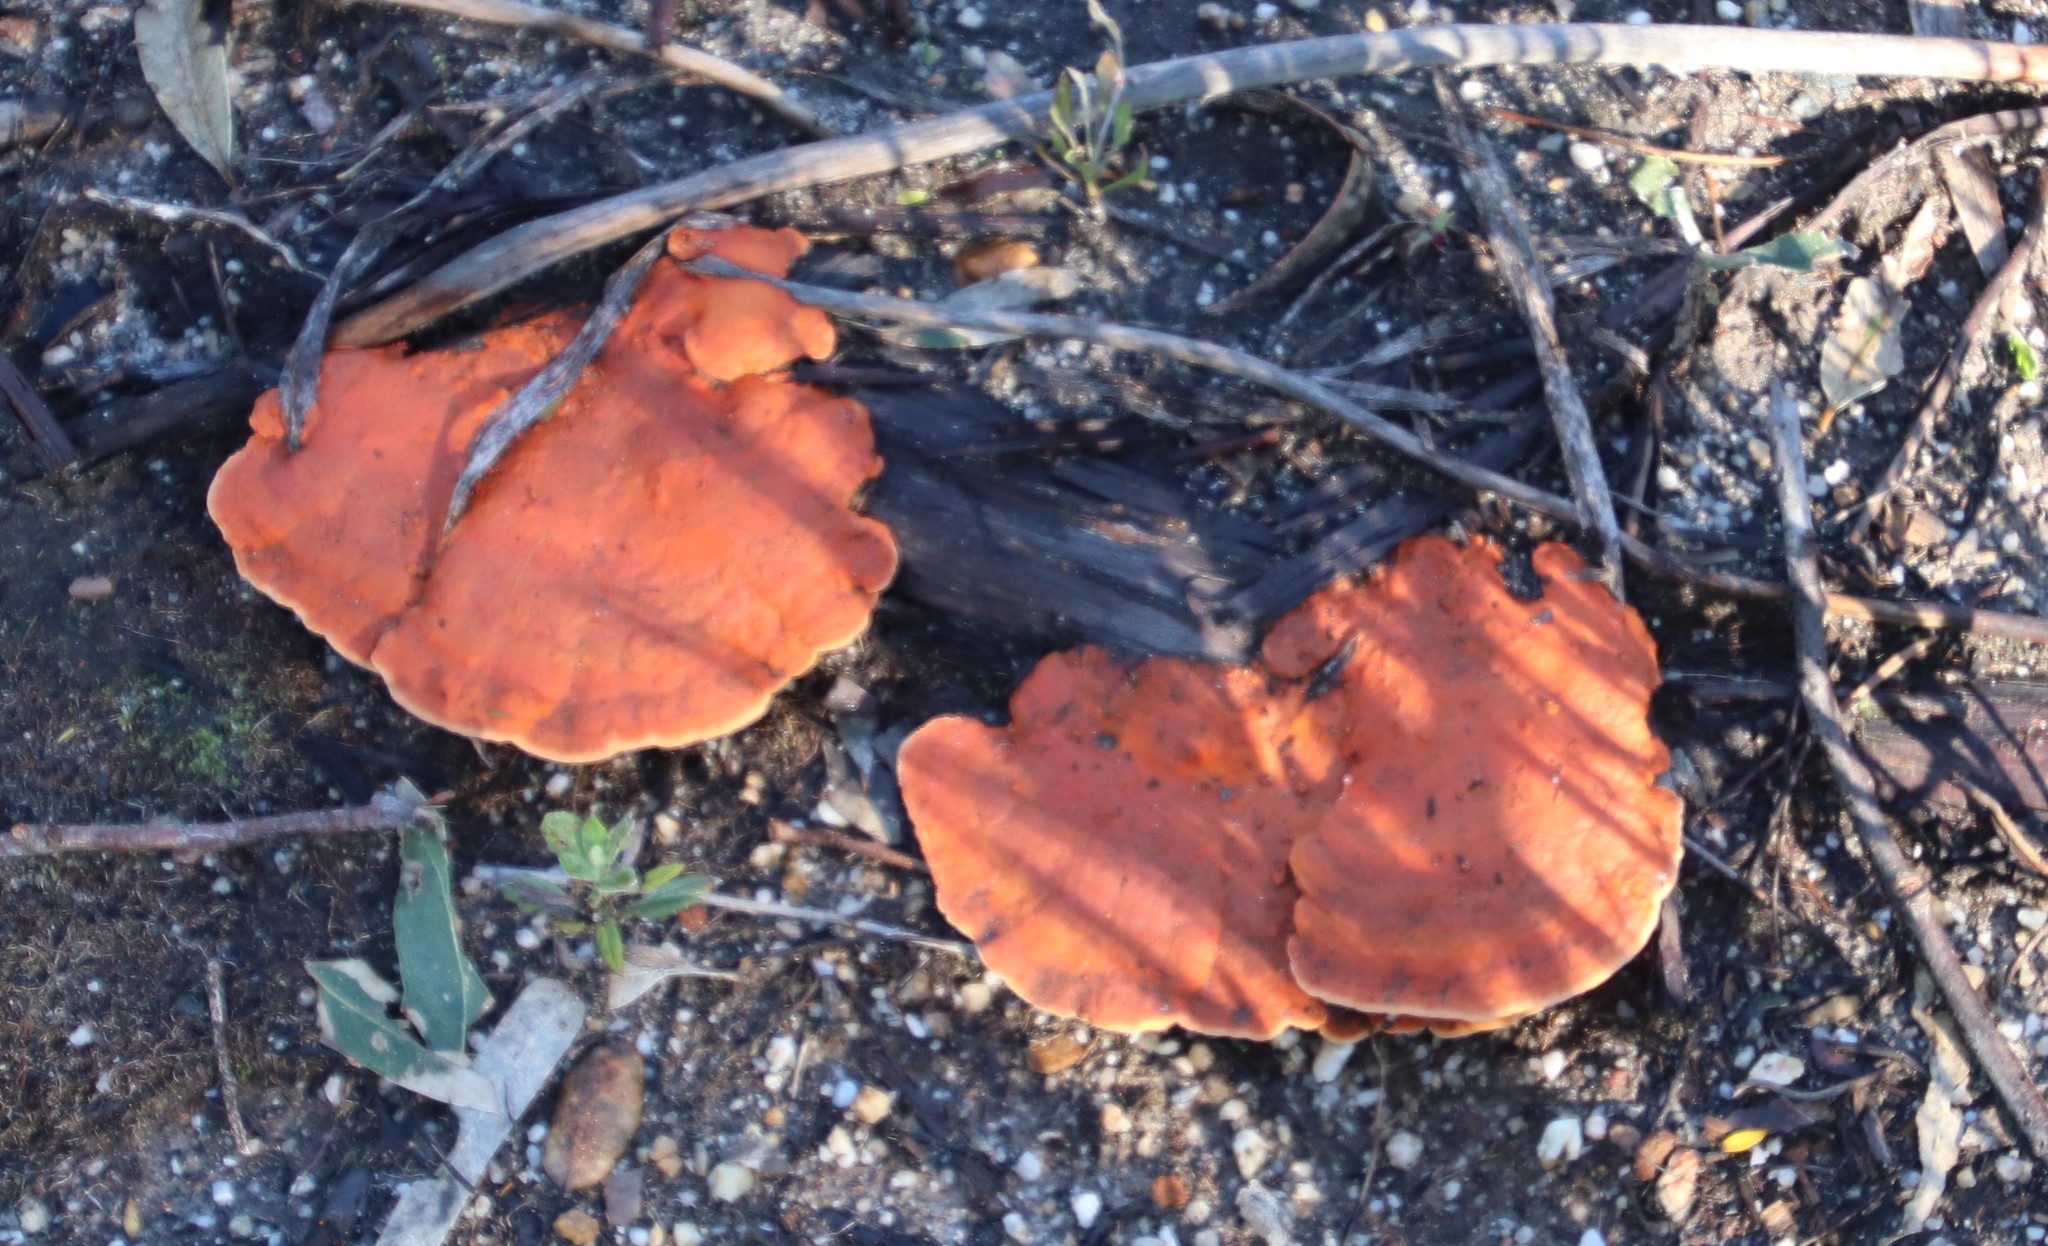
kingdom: Fungi
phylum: Basidiomycota
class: Agaricomycetes
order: Polyporales
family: Polyporaceae
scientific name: Polyporaceae
